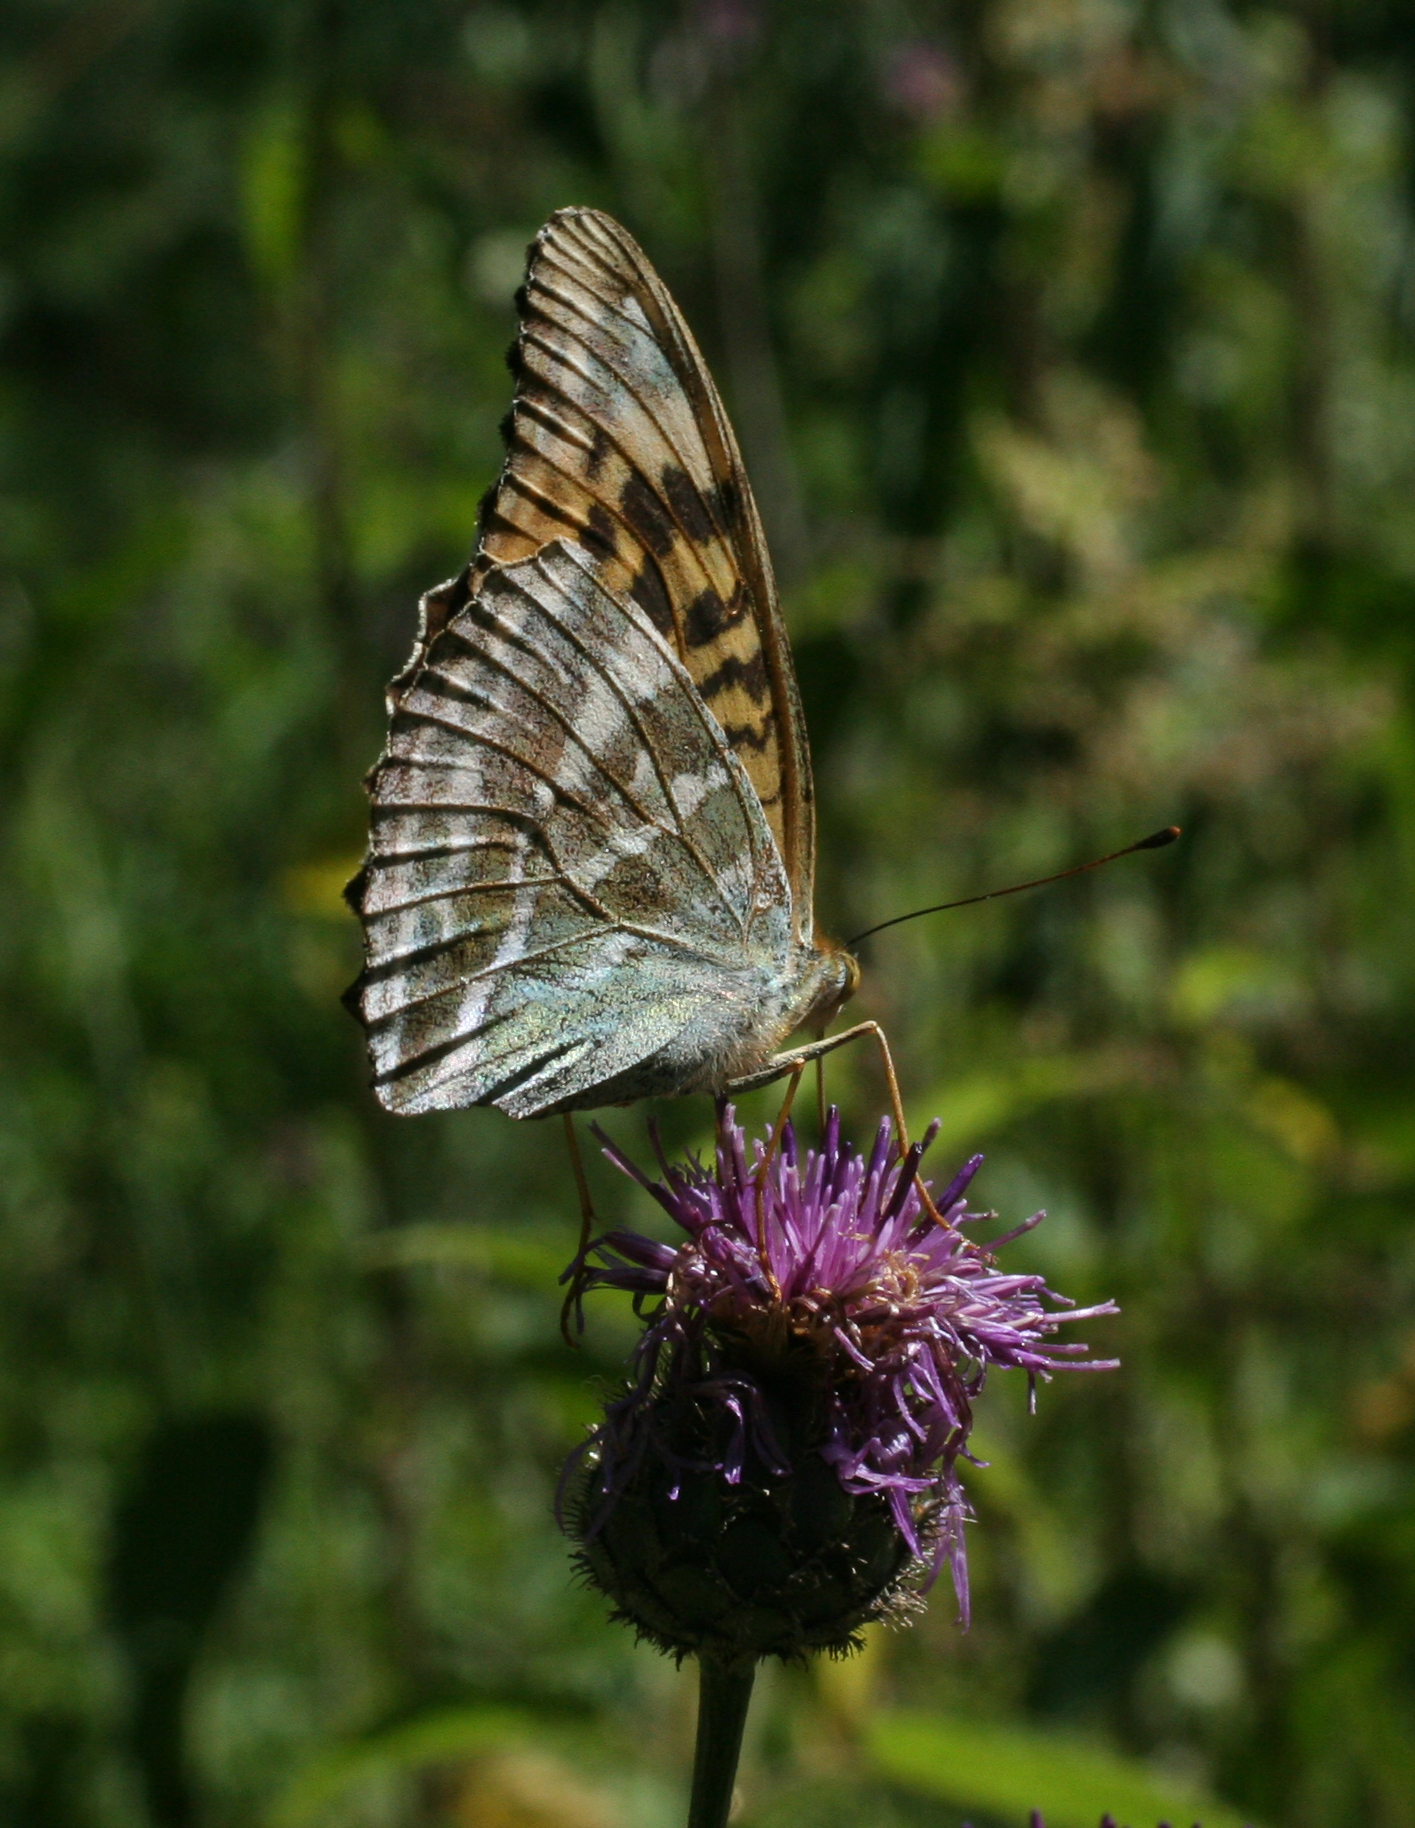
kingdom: Animalia
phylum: Arthropoda
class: Insecta
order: Lepidoptera
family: Nymphalidae
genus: Argynnis
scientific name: Argynnis paphia
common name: Silver-washed fritillary
